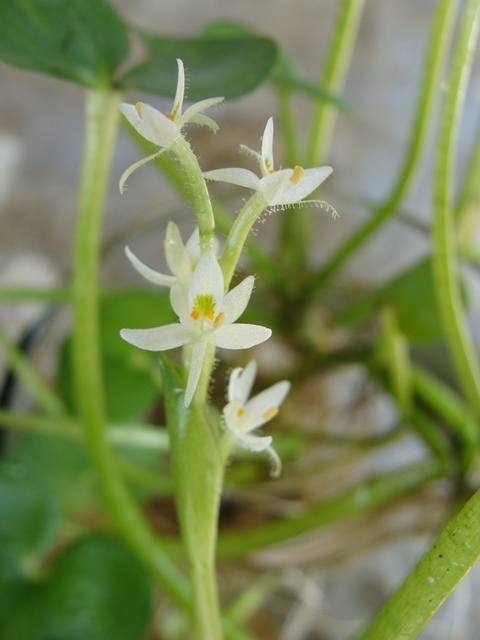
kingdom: Plantae
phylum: Tracheophyta
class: Liliopsida
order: Commelinales
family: Pontederiaceae
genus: Heteranthera
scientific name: Heteranthera reniformis
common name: Kidneyleaf mudplantain
